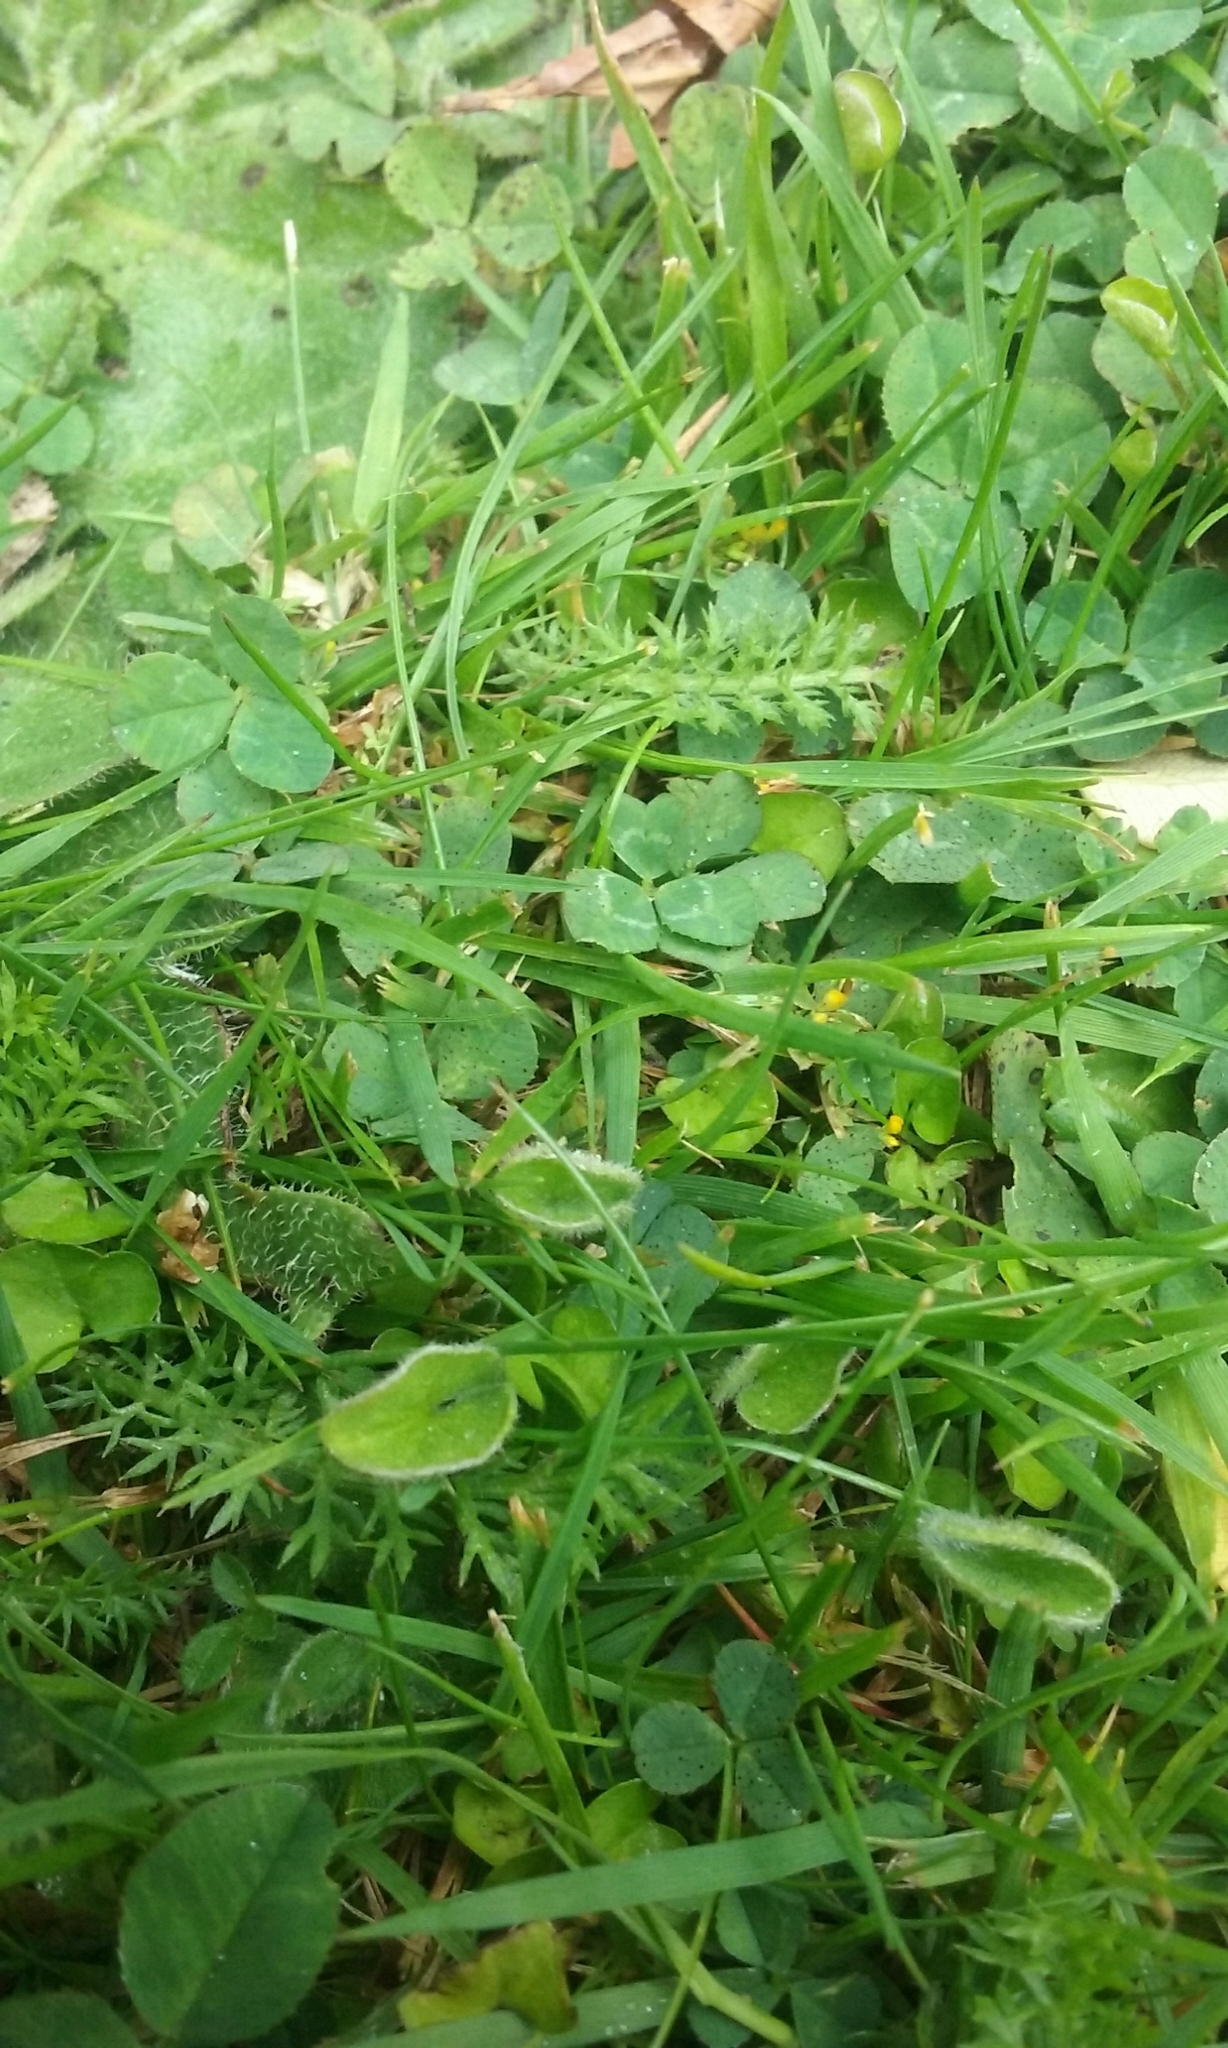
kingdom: Plantae
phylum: Tracheophyta
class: Magnoliopsida
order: Solanales
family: Convolvulaceae
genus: Dichondra
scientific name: Dichondra repens
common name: Kidneyweed
